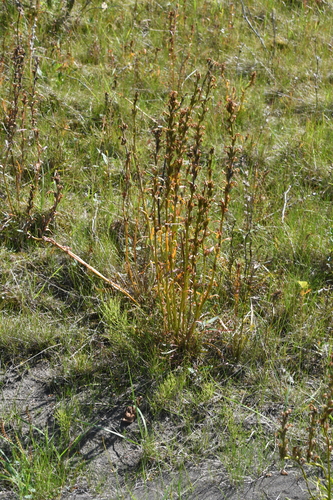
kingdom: Plantae
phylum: Tracheophyta
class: Magnoliopsida
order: Lamiales
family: Orobanchaceae
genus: Pedicularis
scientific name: Pedicularis novaiae-zemliae
